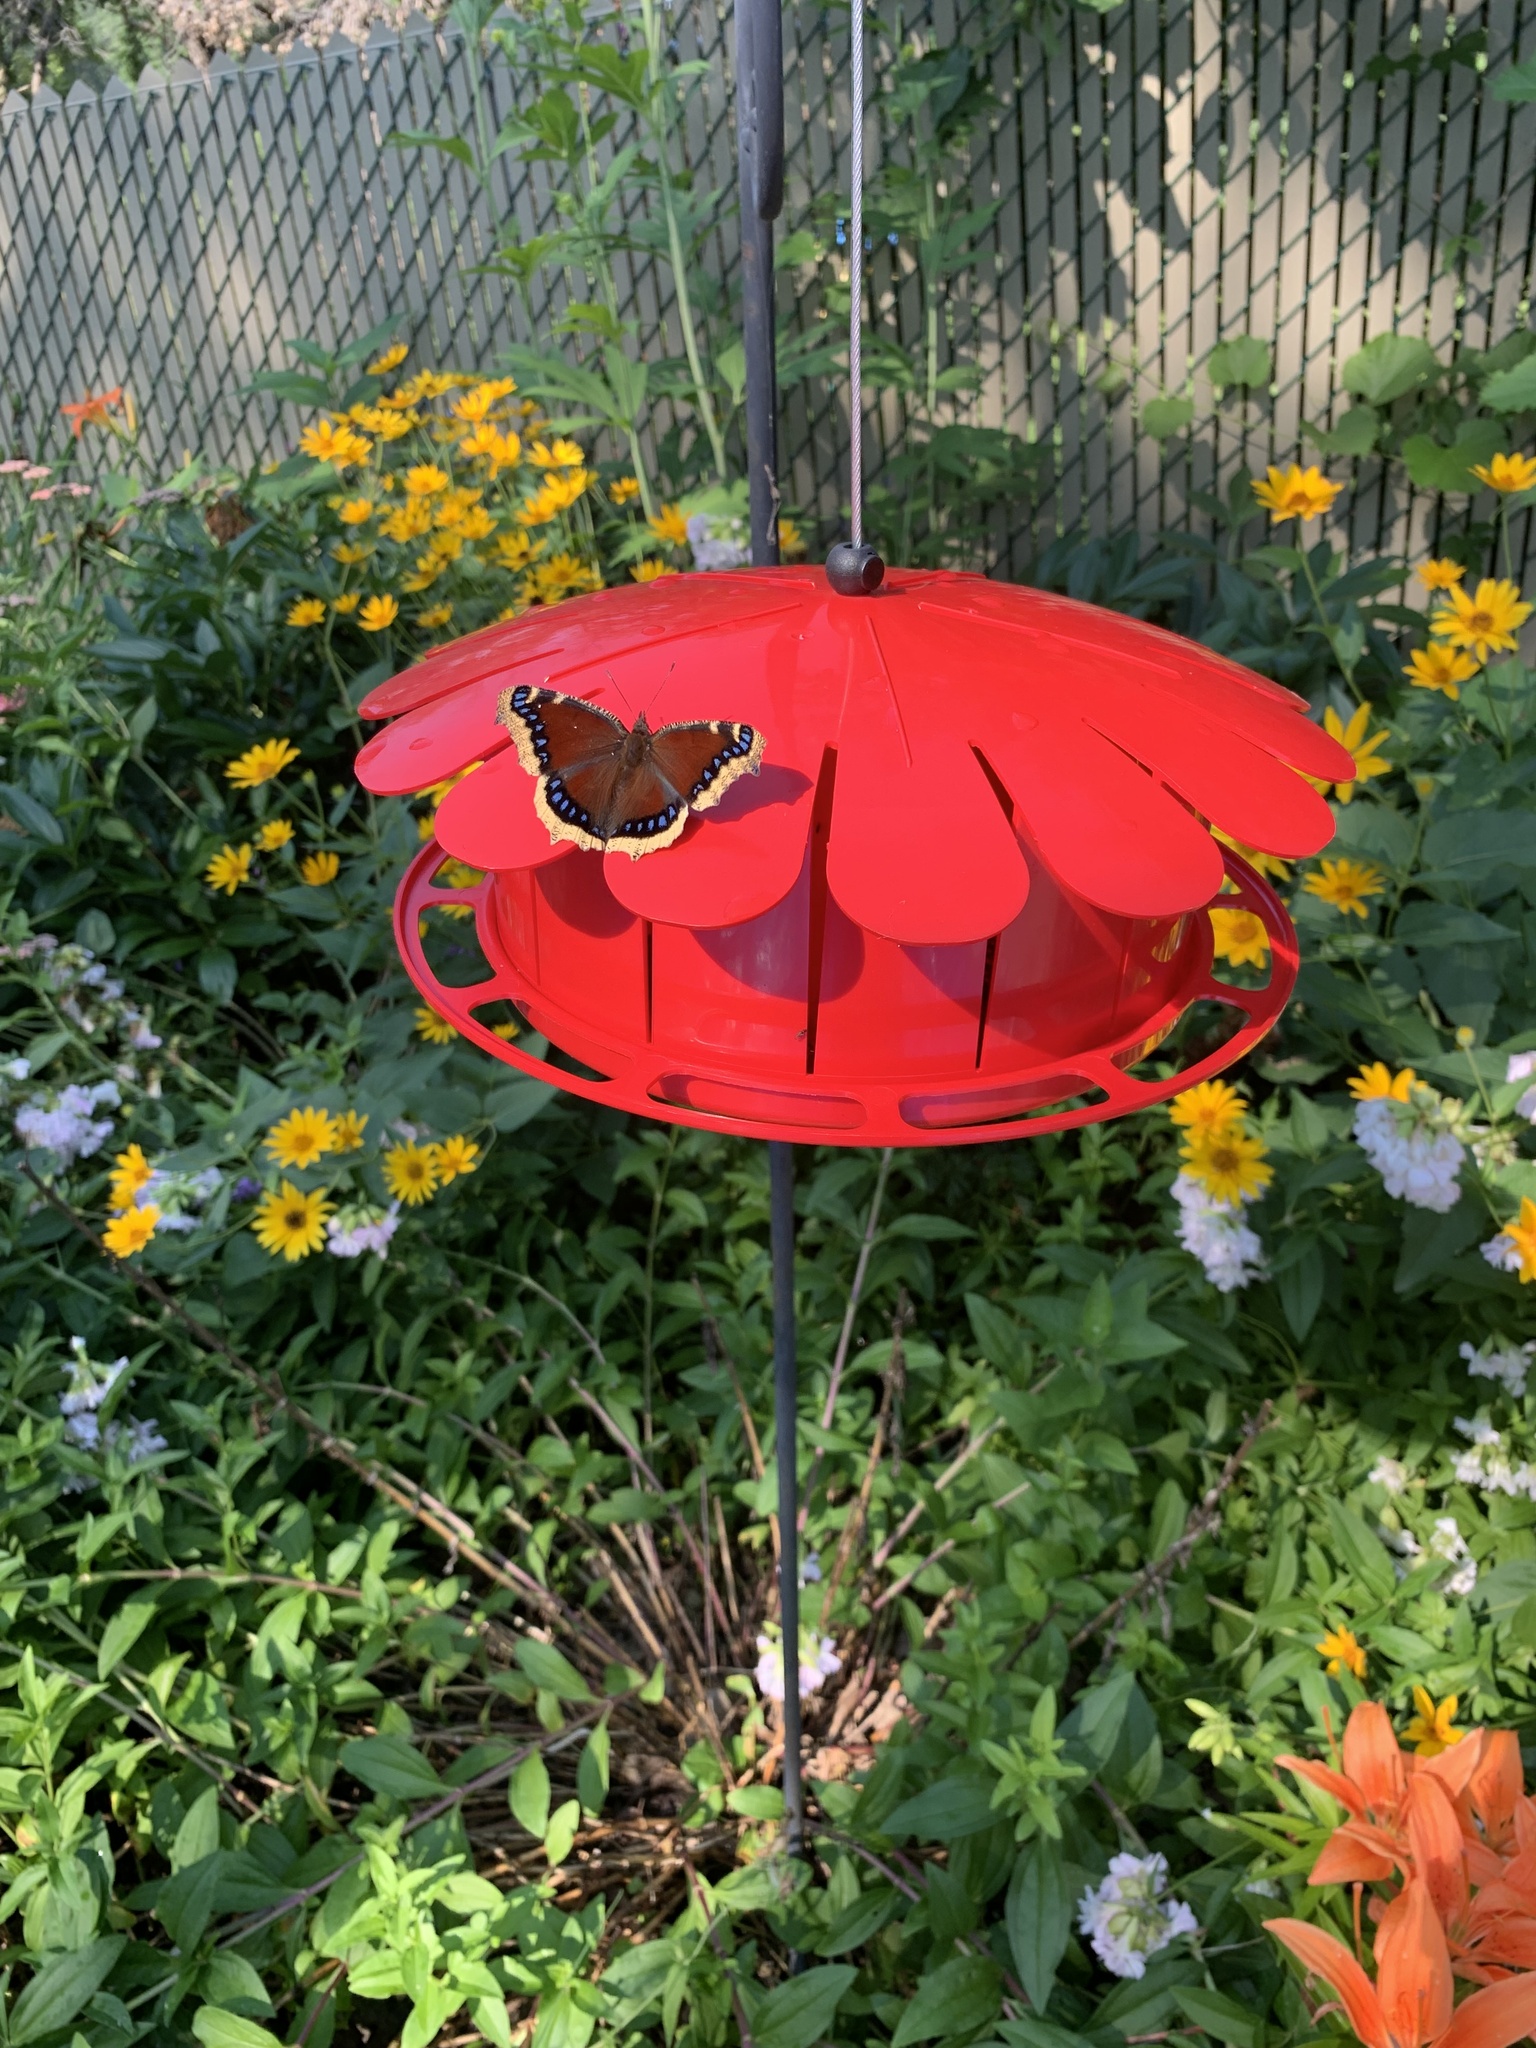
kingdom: Animalia
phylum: Arthropoda
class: Insecta
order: Lepidoptera
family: Nymphalidae
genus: Nymphalis
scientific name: Nymphalis antiopa
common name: Camberwell beauty
